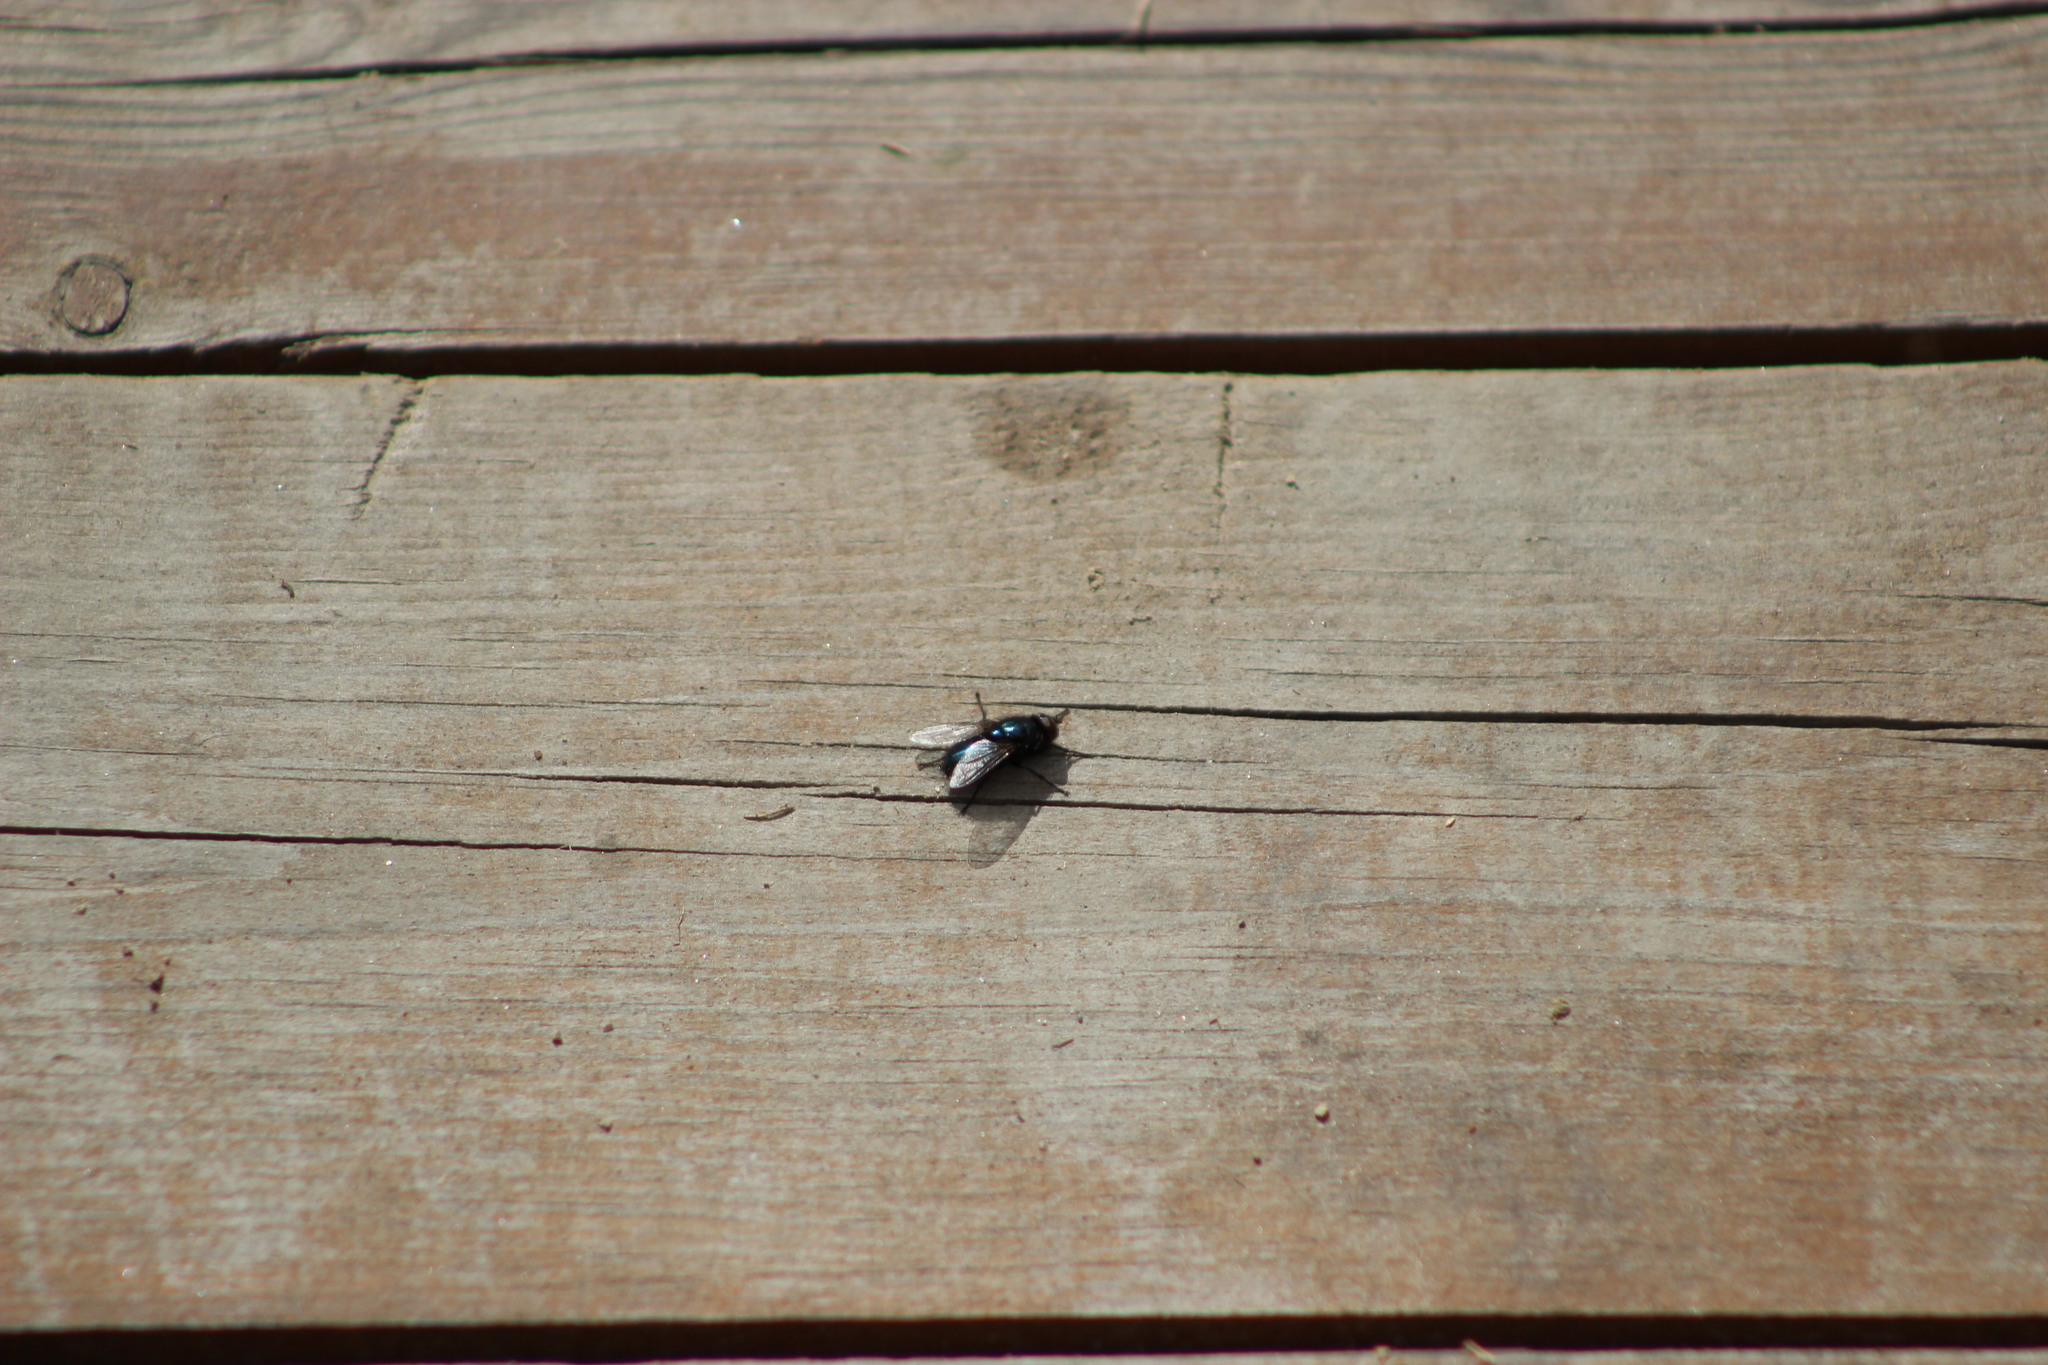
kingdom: Animalia
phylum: Arthropoda
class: Insecta
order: Diptera
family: Calliphoridae
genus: Protophormia
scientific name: Protophormia terraenovae
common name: Blackbottle
